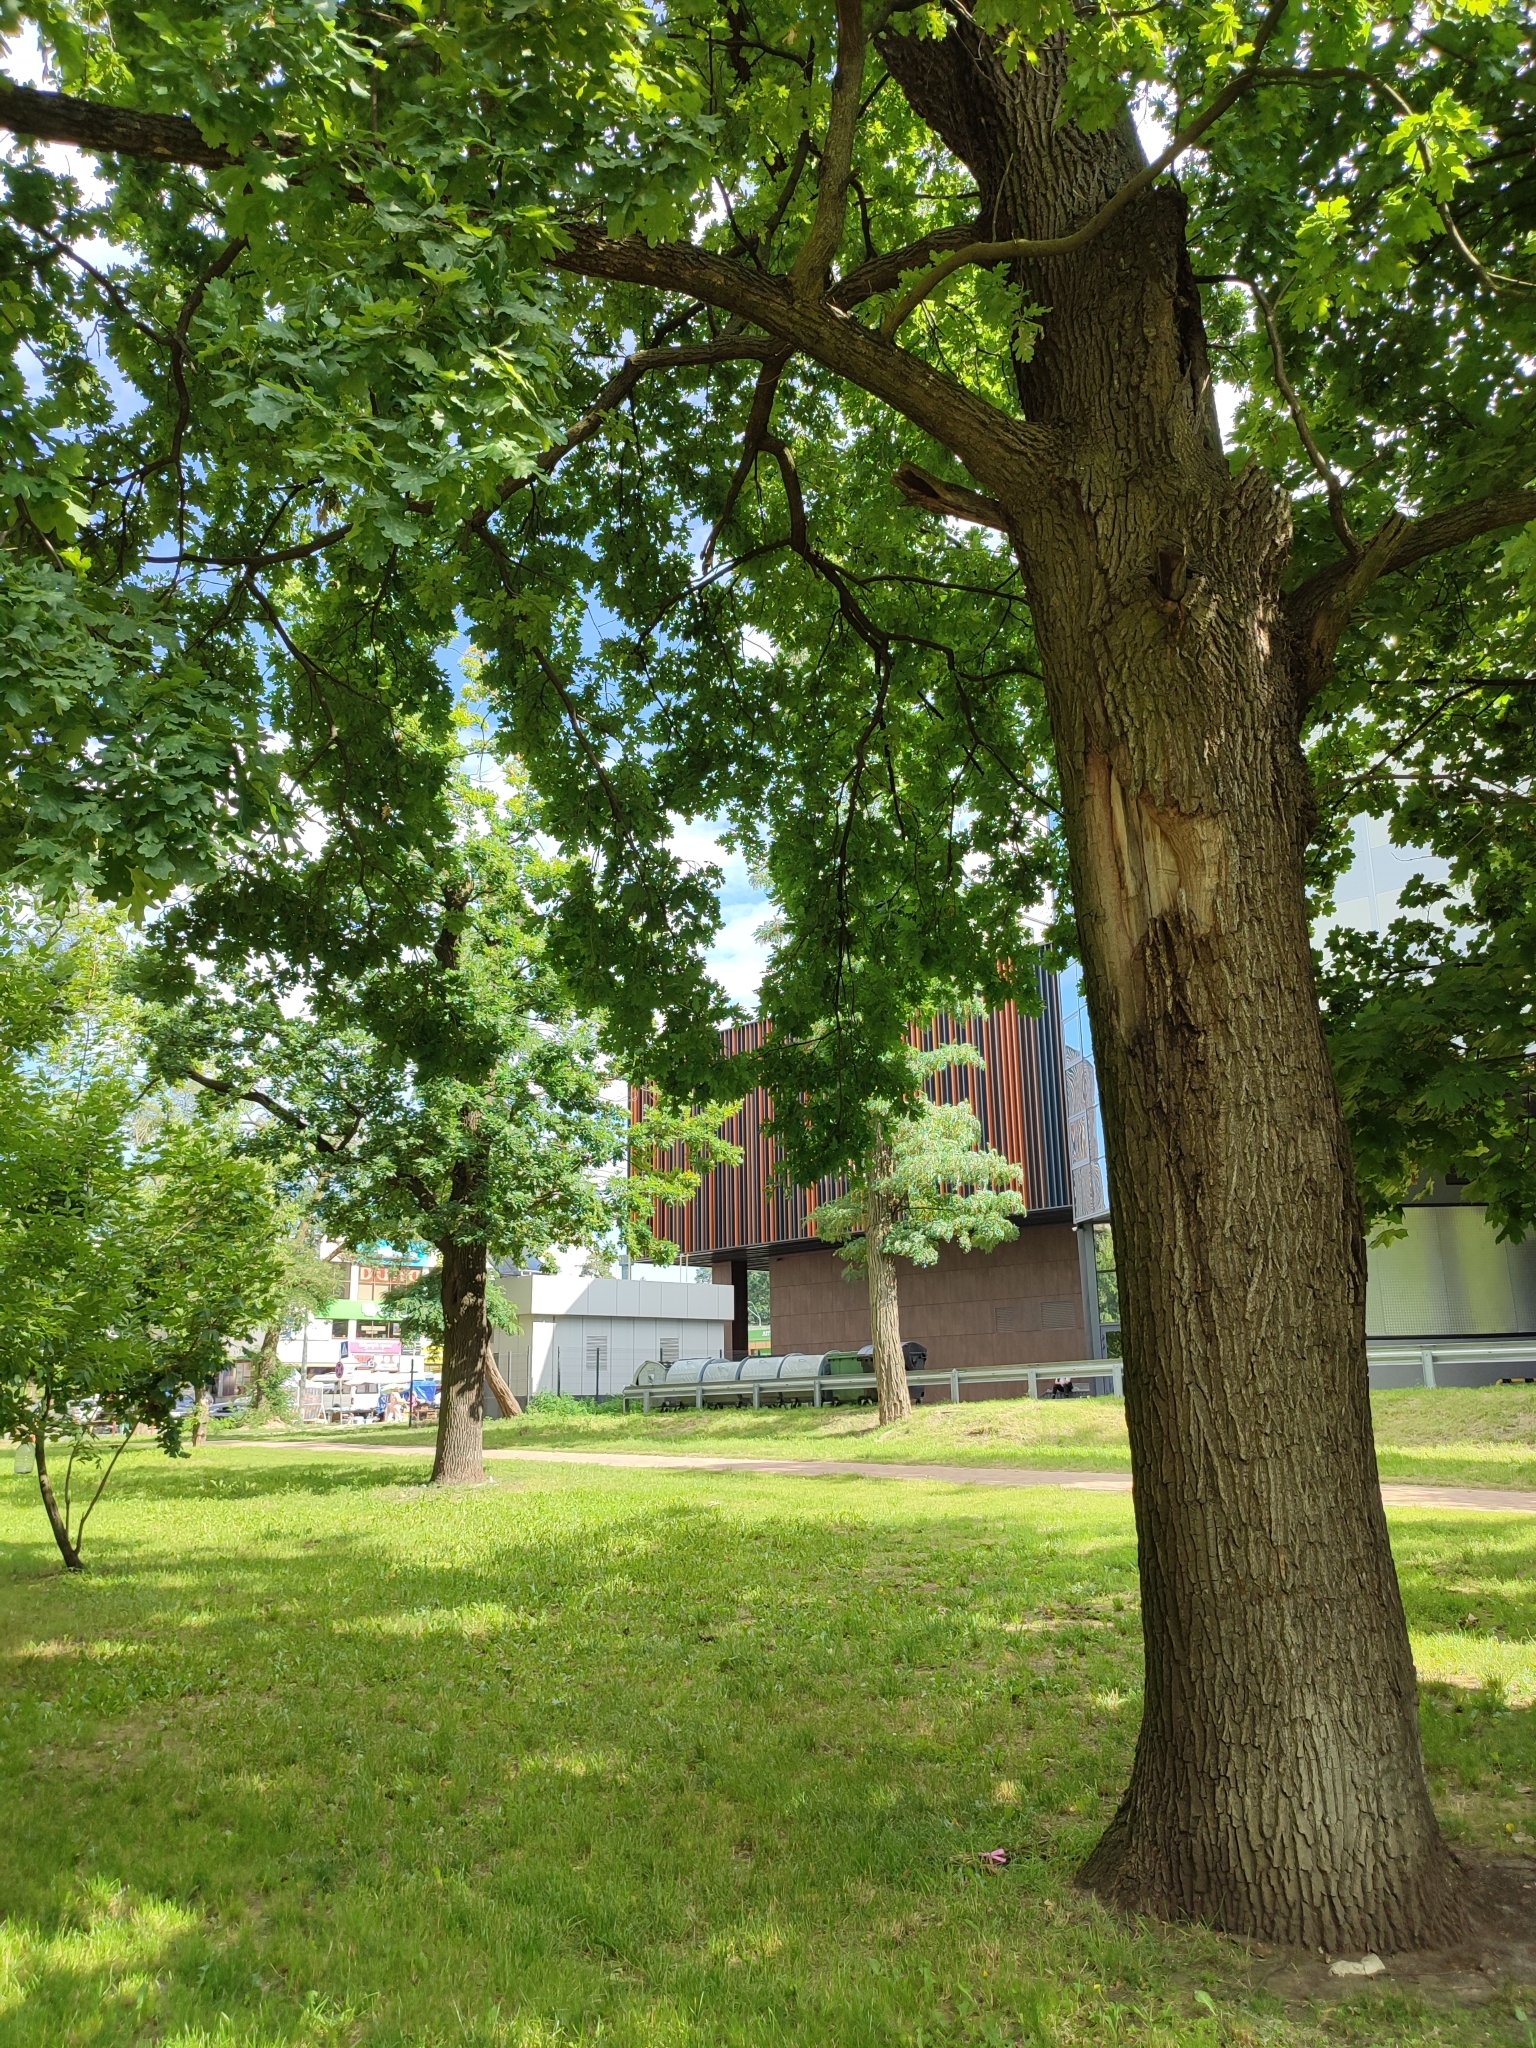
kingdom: Plantae
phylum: Tracheophyta
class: Magnoliopsida
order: Fagales
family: Fagaceae
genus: Quercus
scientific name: Quercus robur
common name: Pedunculate oak
